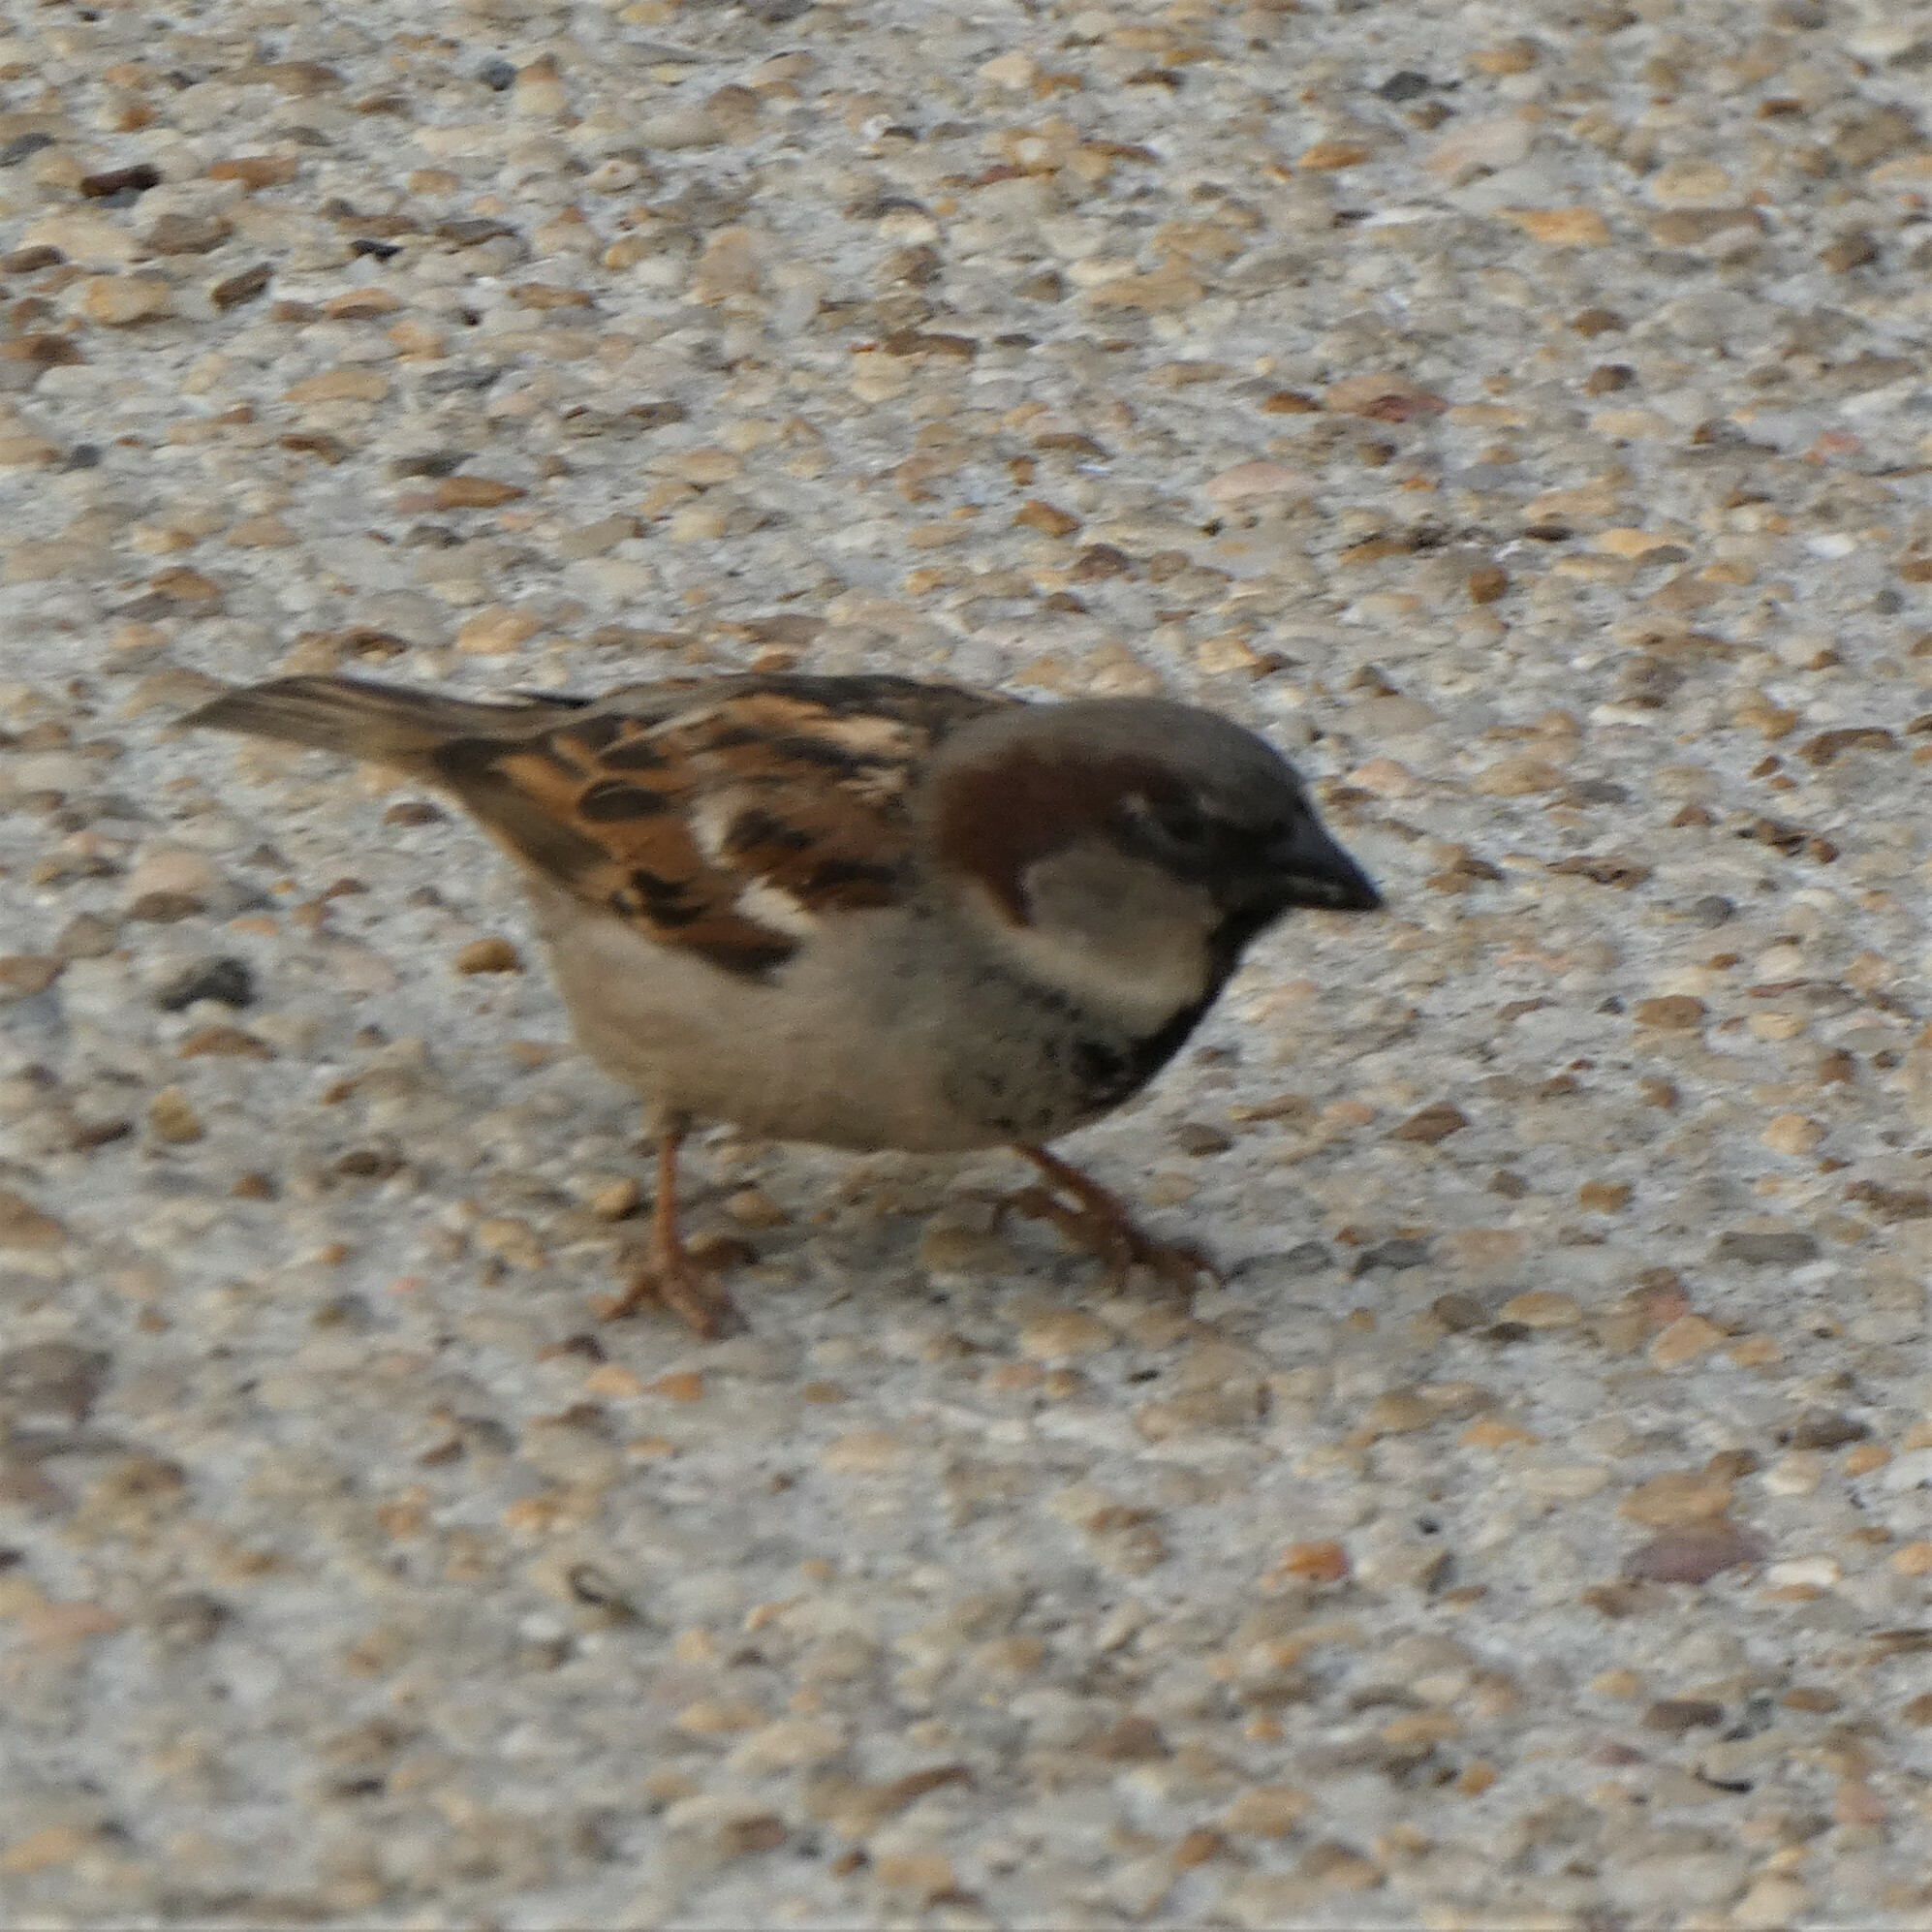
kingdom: Animalia
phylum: Chordata
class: Aves
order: Passeriformes
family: Passeridae
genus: Passer
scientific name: Passer domesticus
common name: House sparrow
